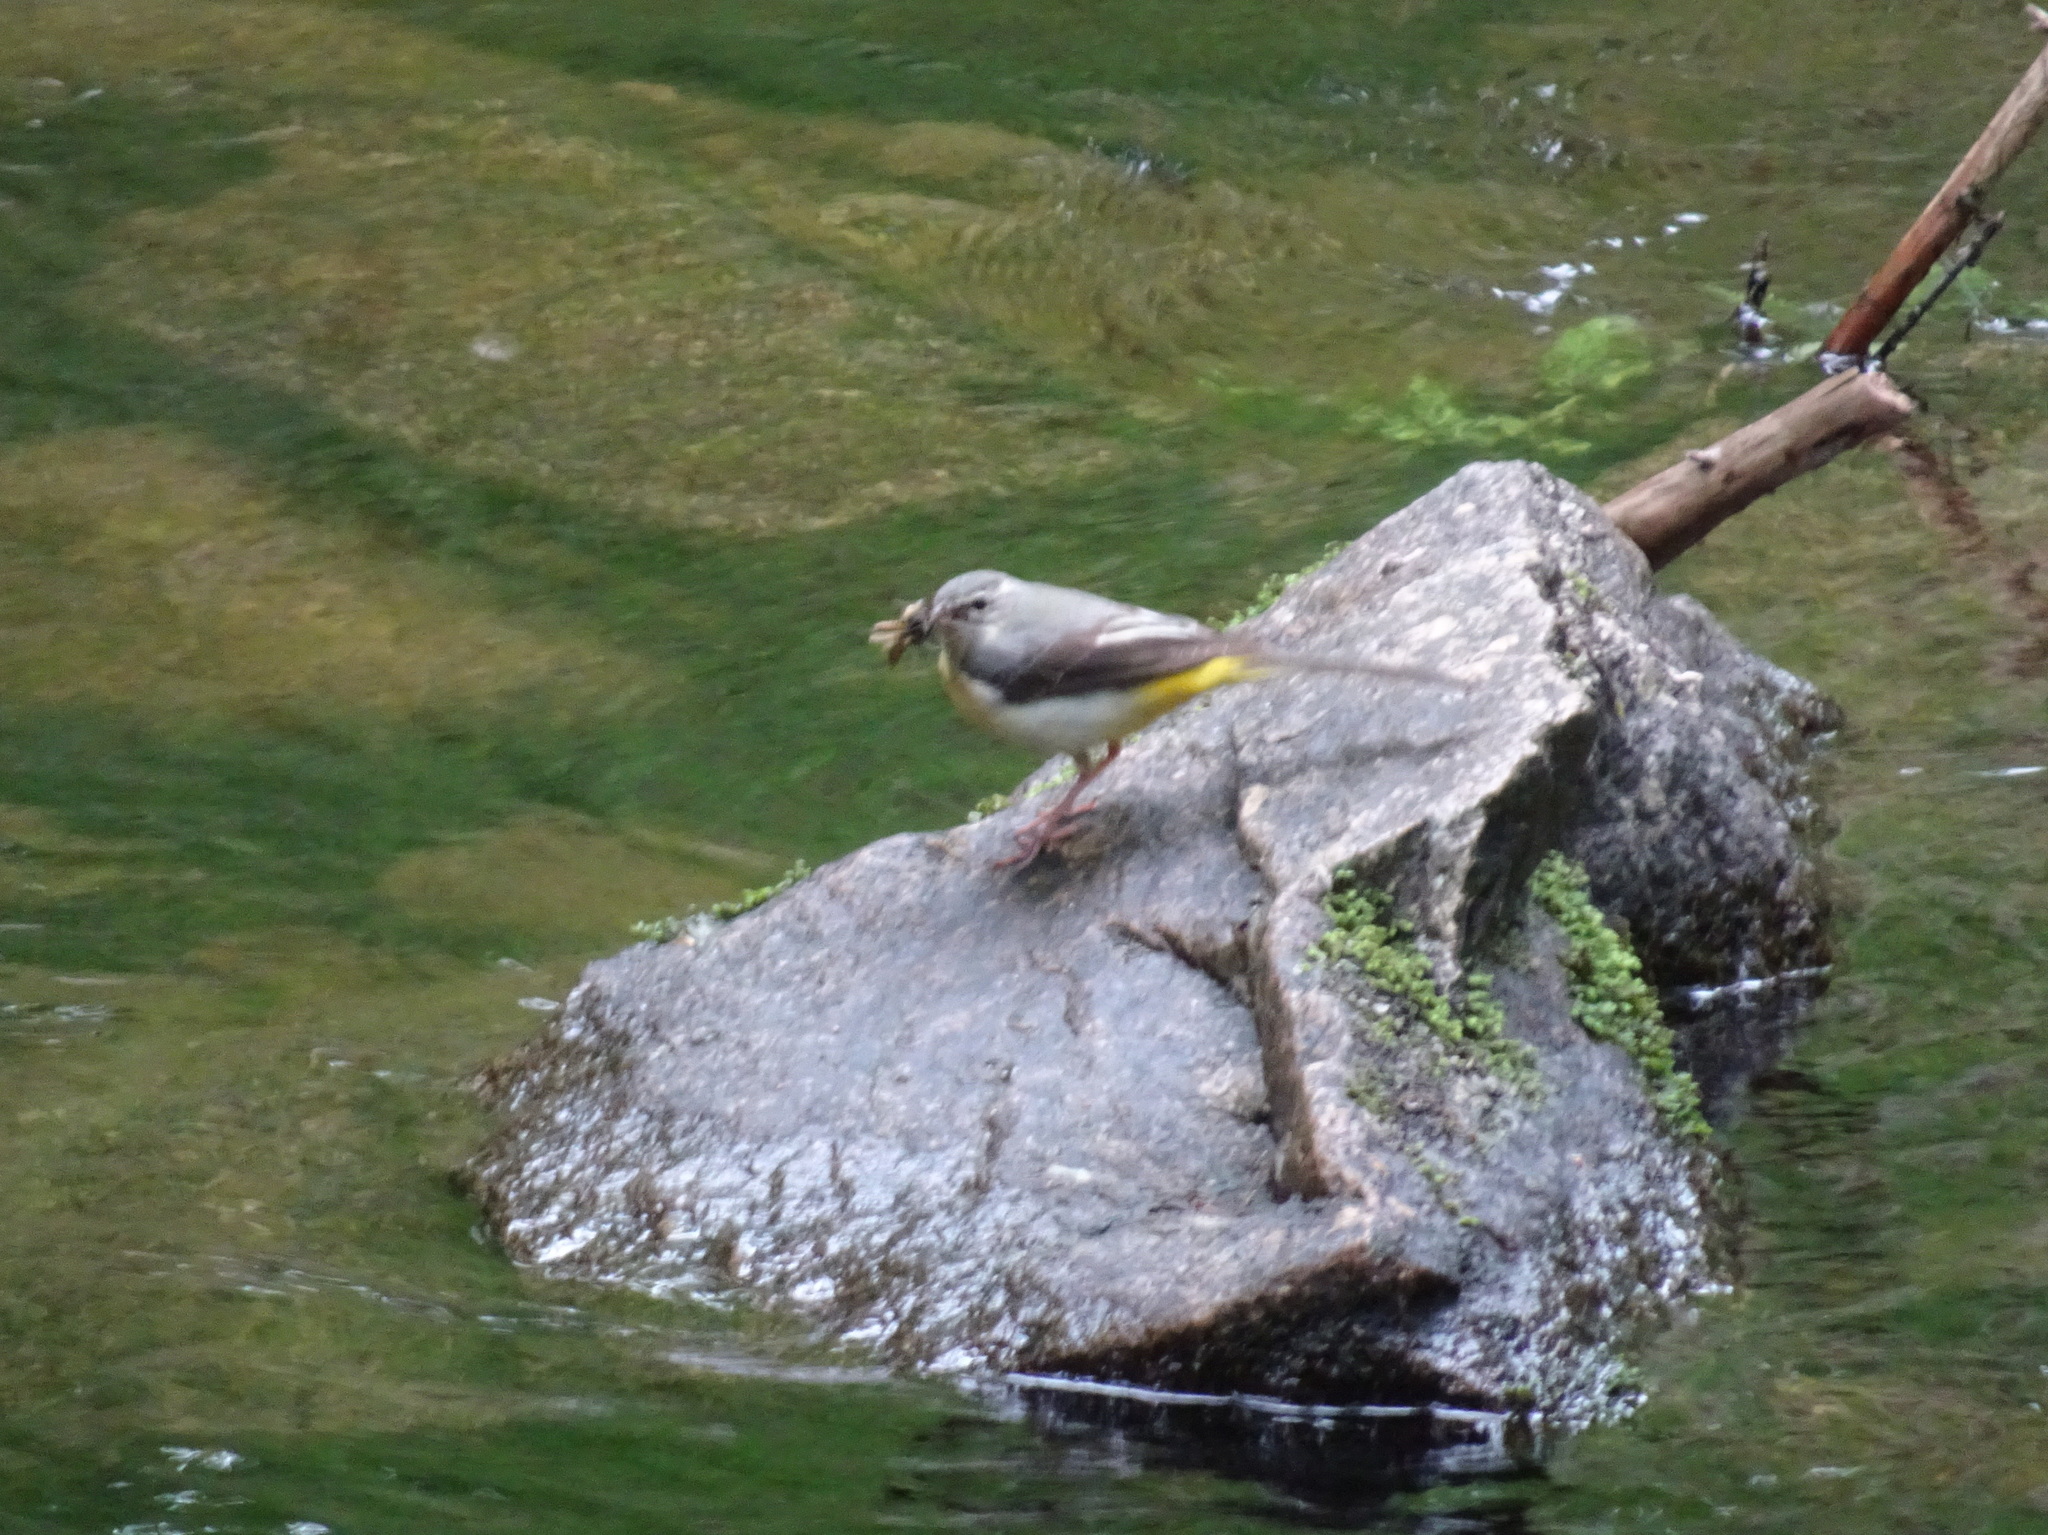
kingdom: Animalia
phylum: Chordata
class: Aves
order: Passeriformes
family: Motacillidae
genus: Motacilla
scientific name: Motacilla cinerea
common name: Grey wagtail
